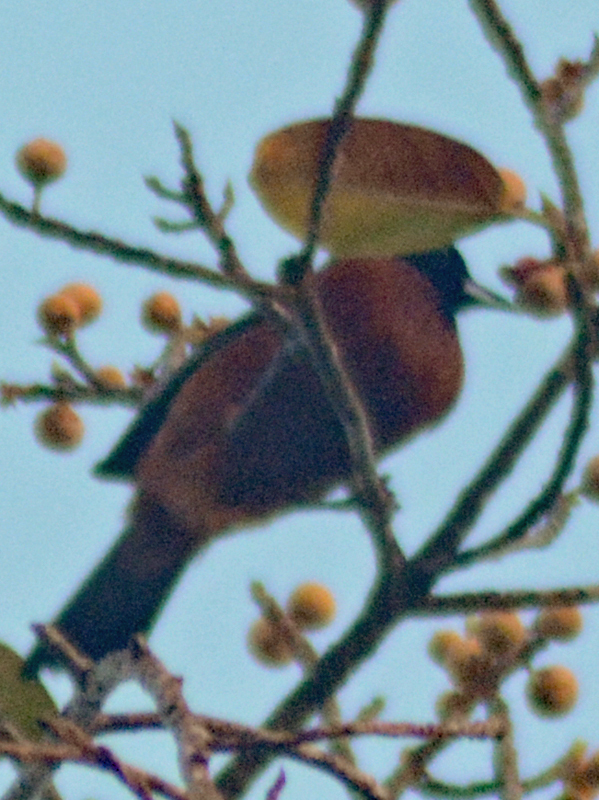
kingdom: Animalia
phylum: Chordata
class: Aves
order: Passeriformes
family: Icteridae
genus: Icterus
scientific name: Icterus spurius
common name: Orchard oriole
